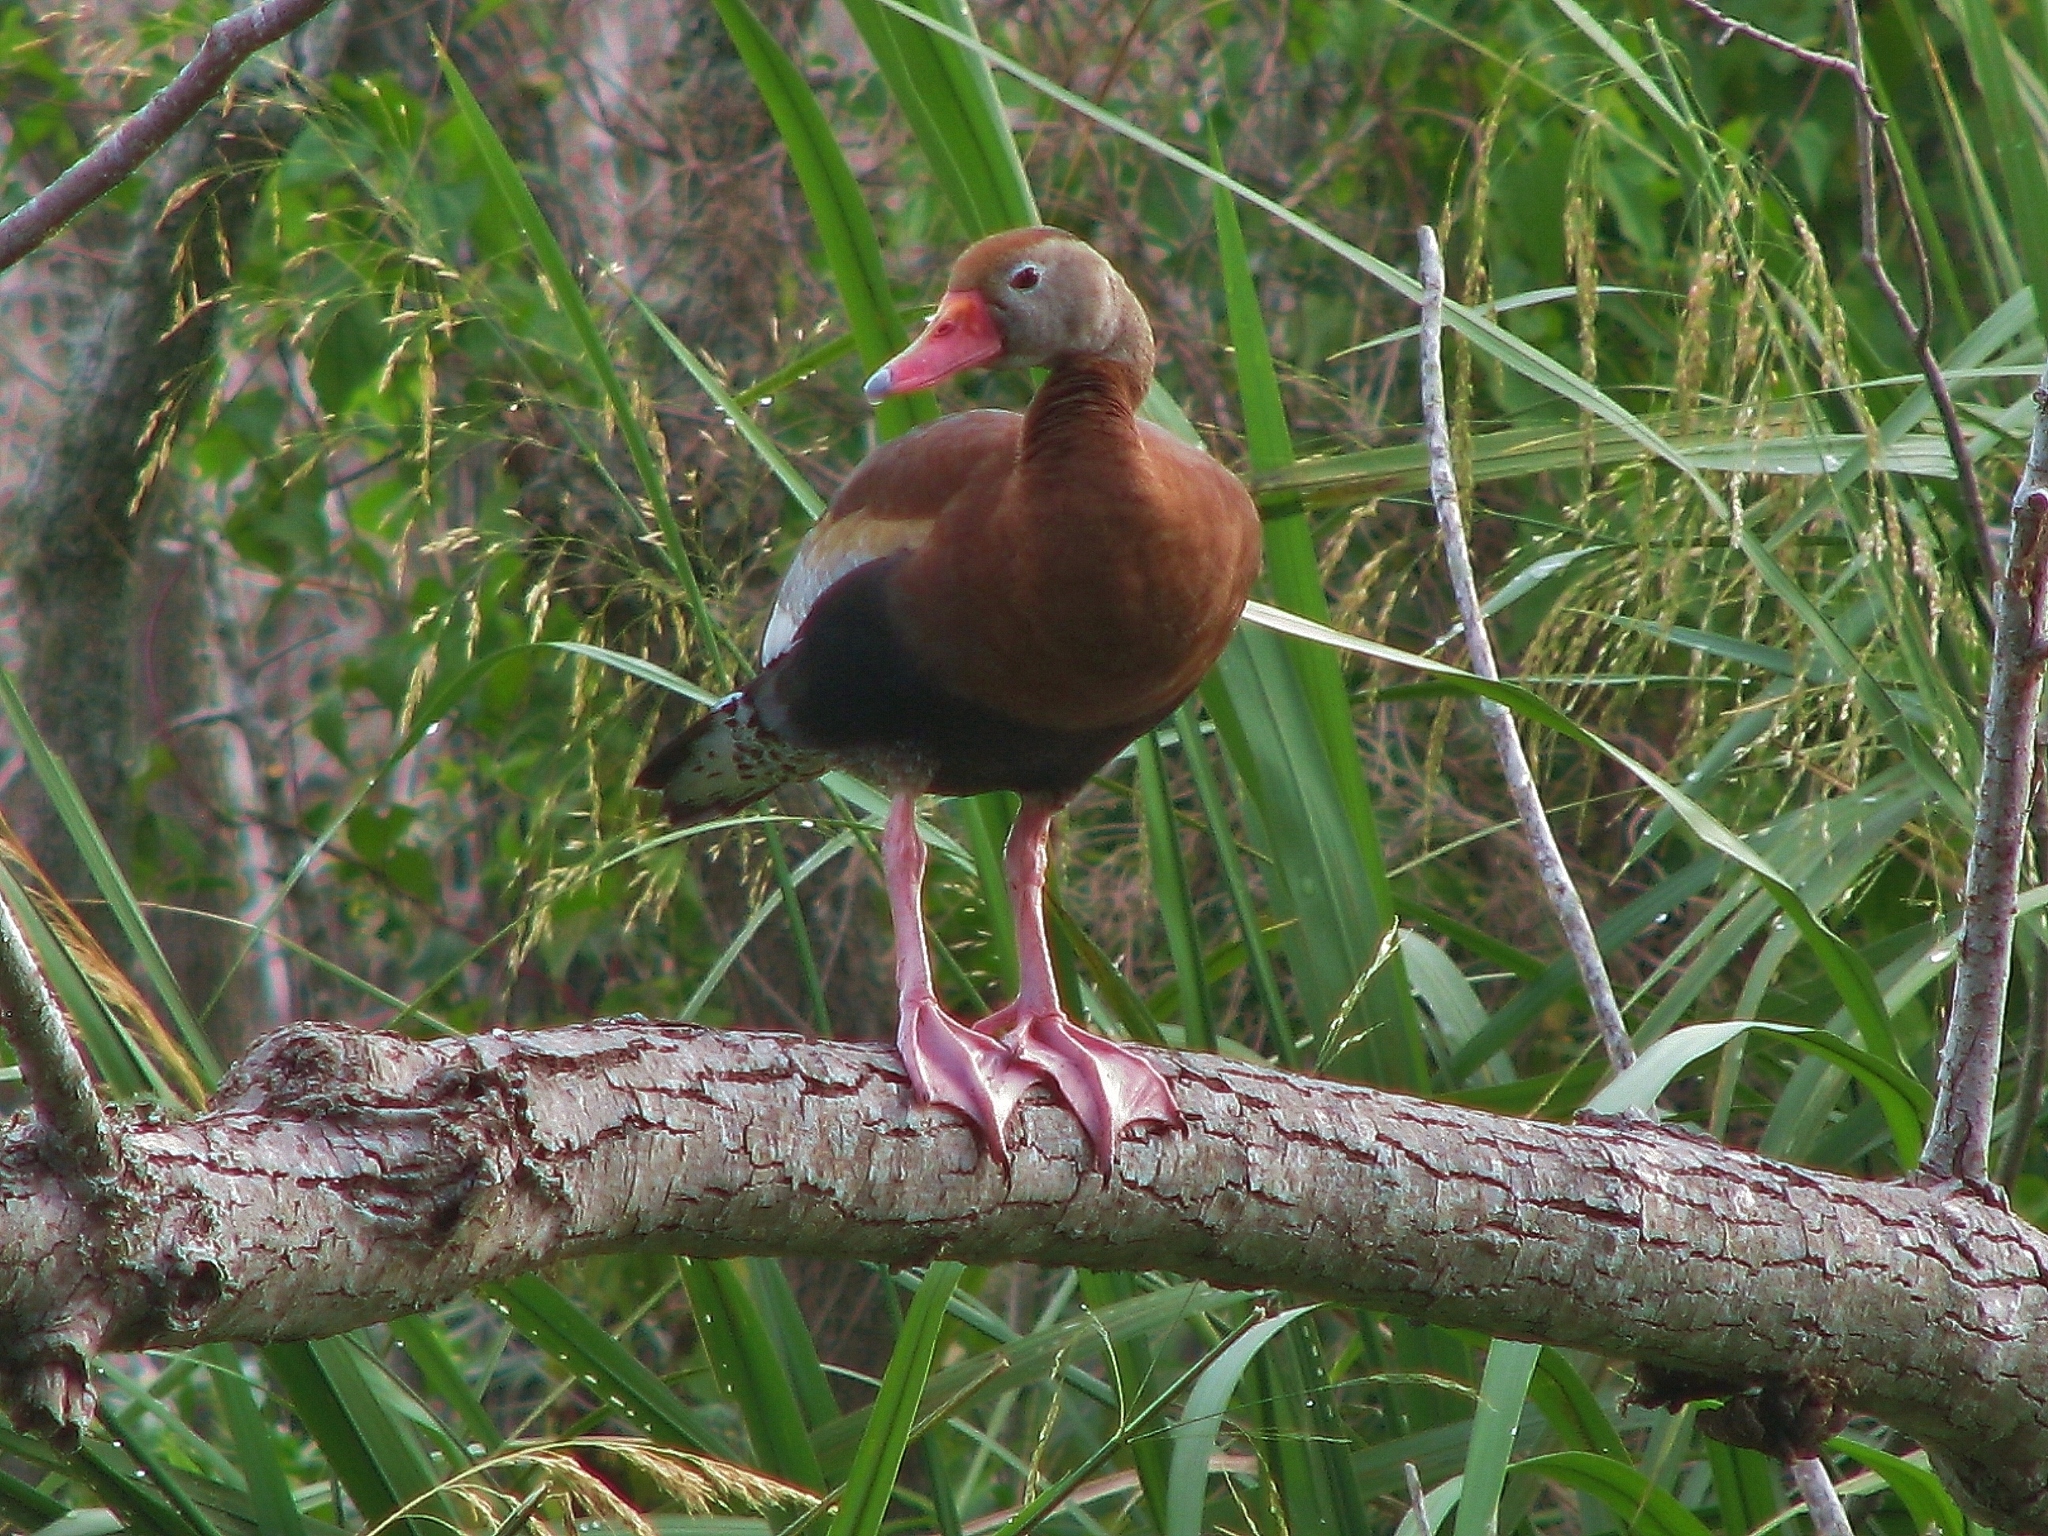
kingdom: Animalia
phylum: Chordata
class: Aves
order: Anseriformes
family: Anatidae
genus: Dendrocygna
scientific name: Dendrocygna autumnalis
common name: Black-bellied whistling duck
